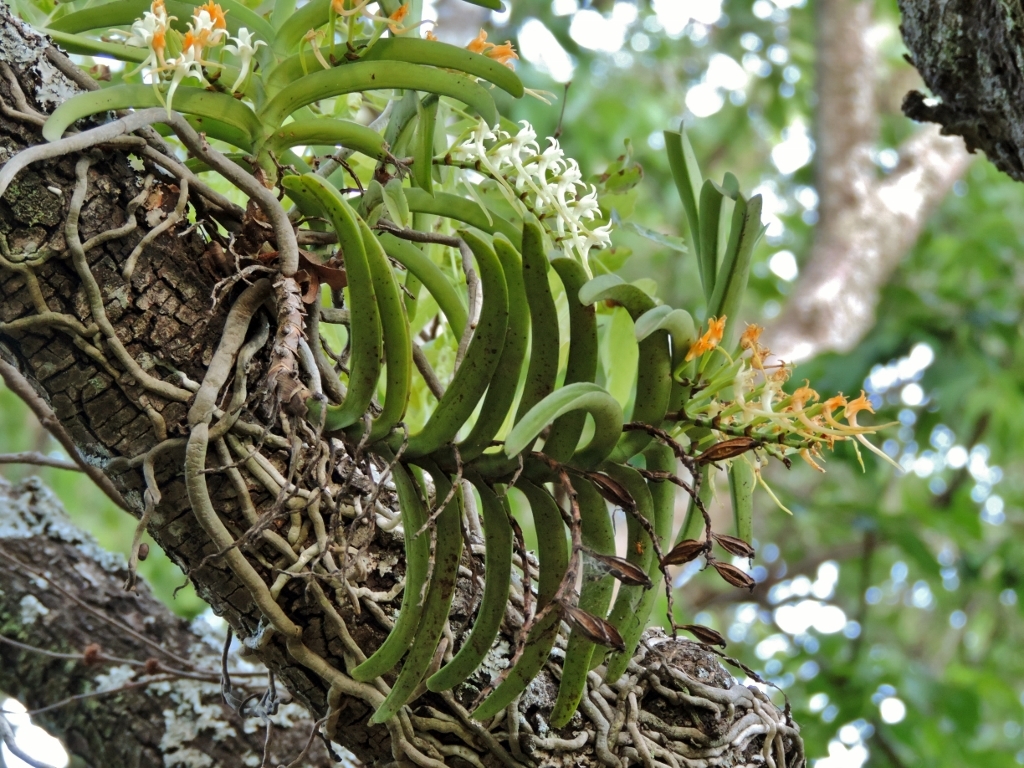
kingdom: Plantae
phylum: Tracheophyta
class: Liliopsida
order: Asparagales
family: Orchidaceae
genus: Cyrtorchis
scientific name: Cyrtorchis praetermissa
